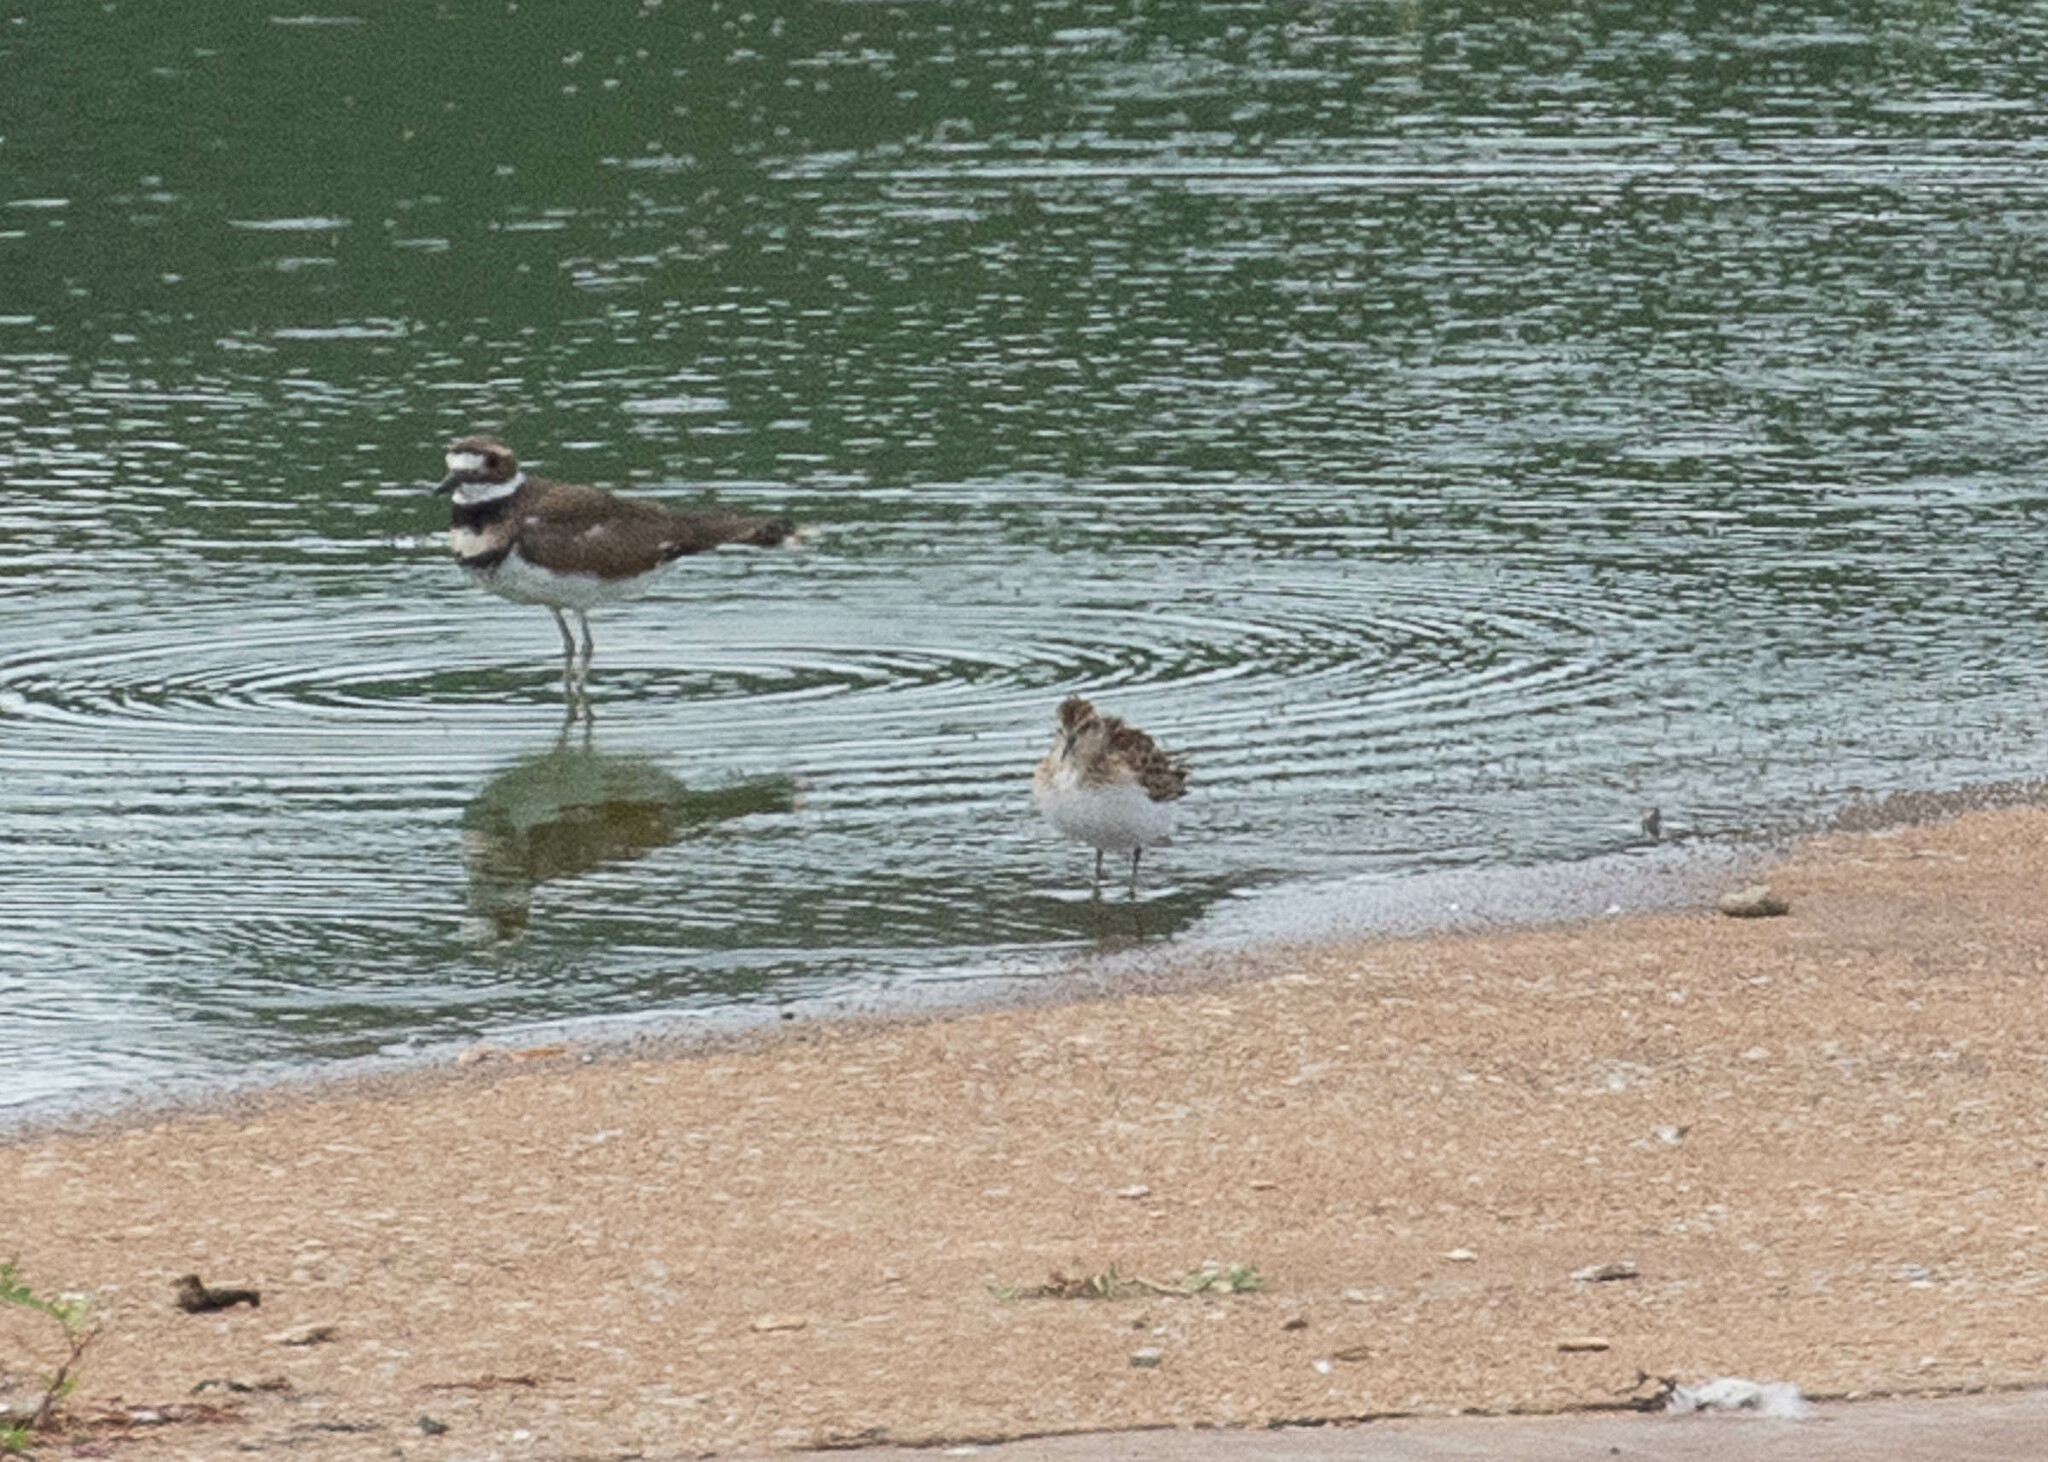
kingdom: Animalia
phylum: Chordata
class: Aves
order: Charadriiformes
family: Charadriidae
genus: Charadrius
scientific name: Charadrius vociferus
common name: Killdeer
